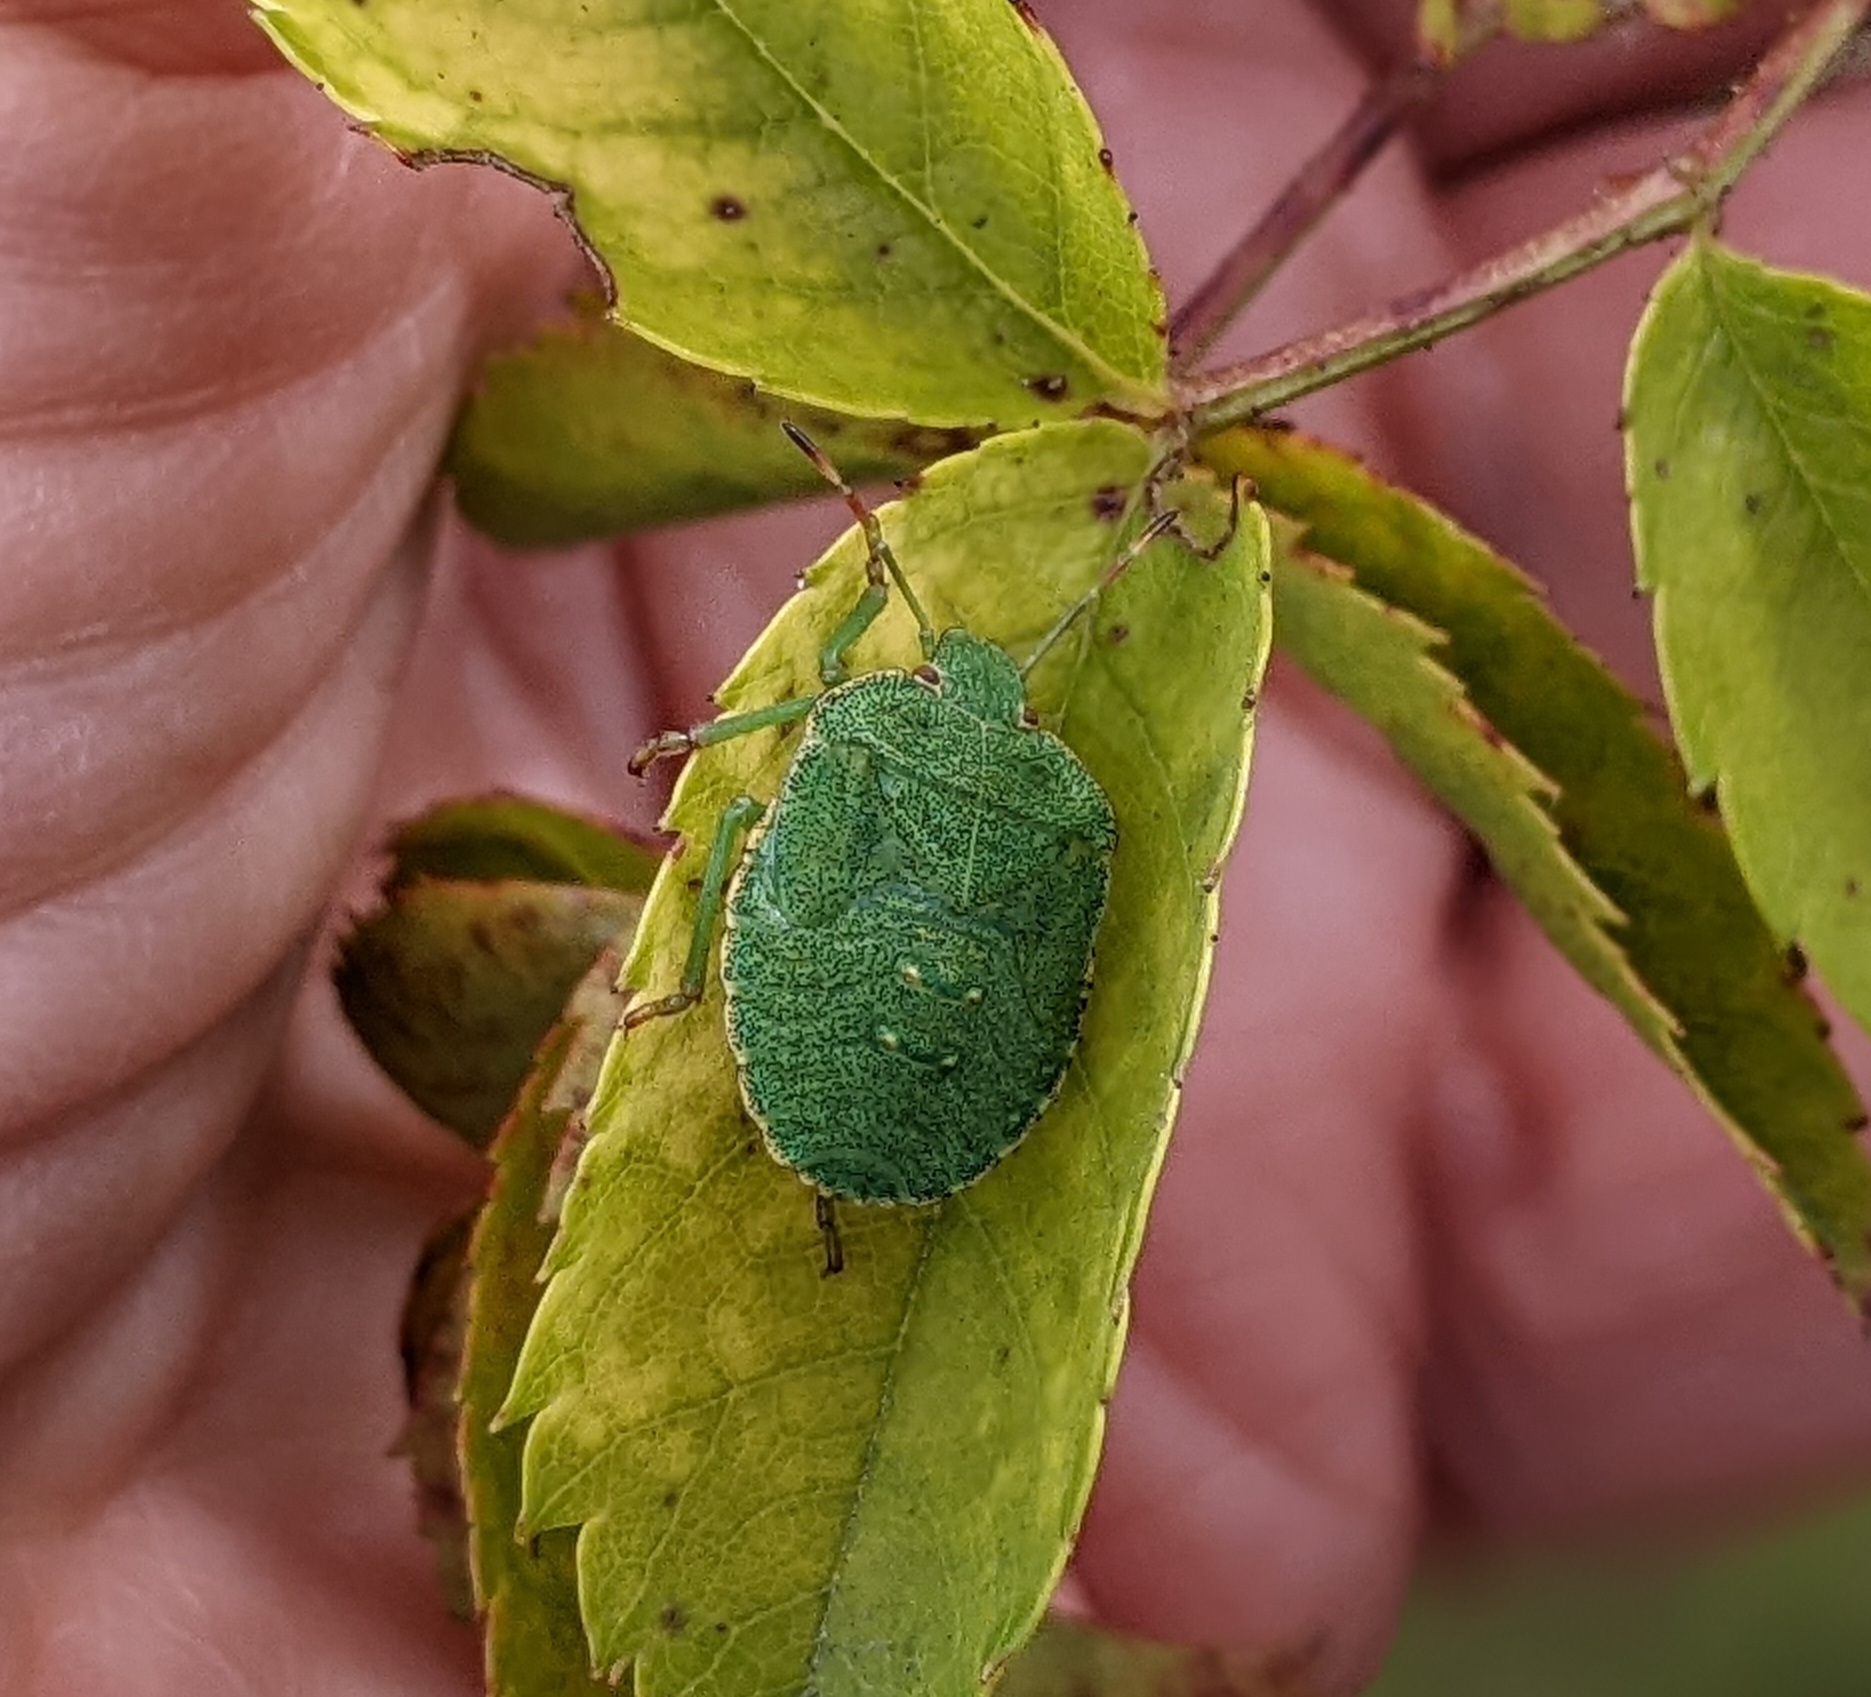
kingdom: Animalia
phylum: Arthropoda
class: Insecta
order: Hemiptera
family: Pentatomidae
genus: Palomena
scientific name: Palomena prasina
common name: Green shieldbug
